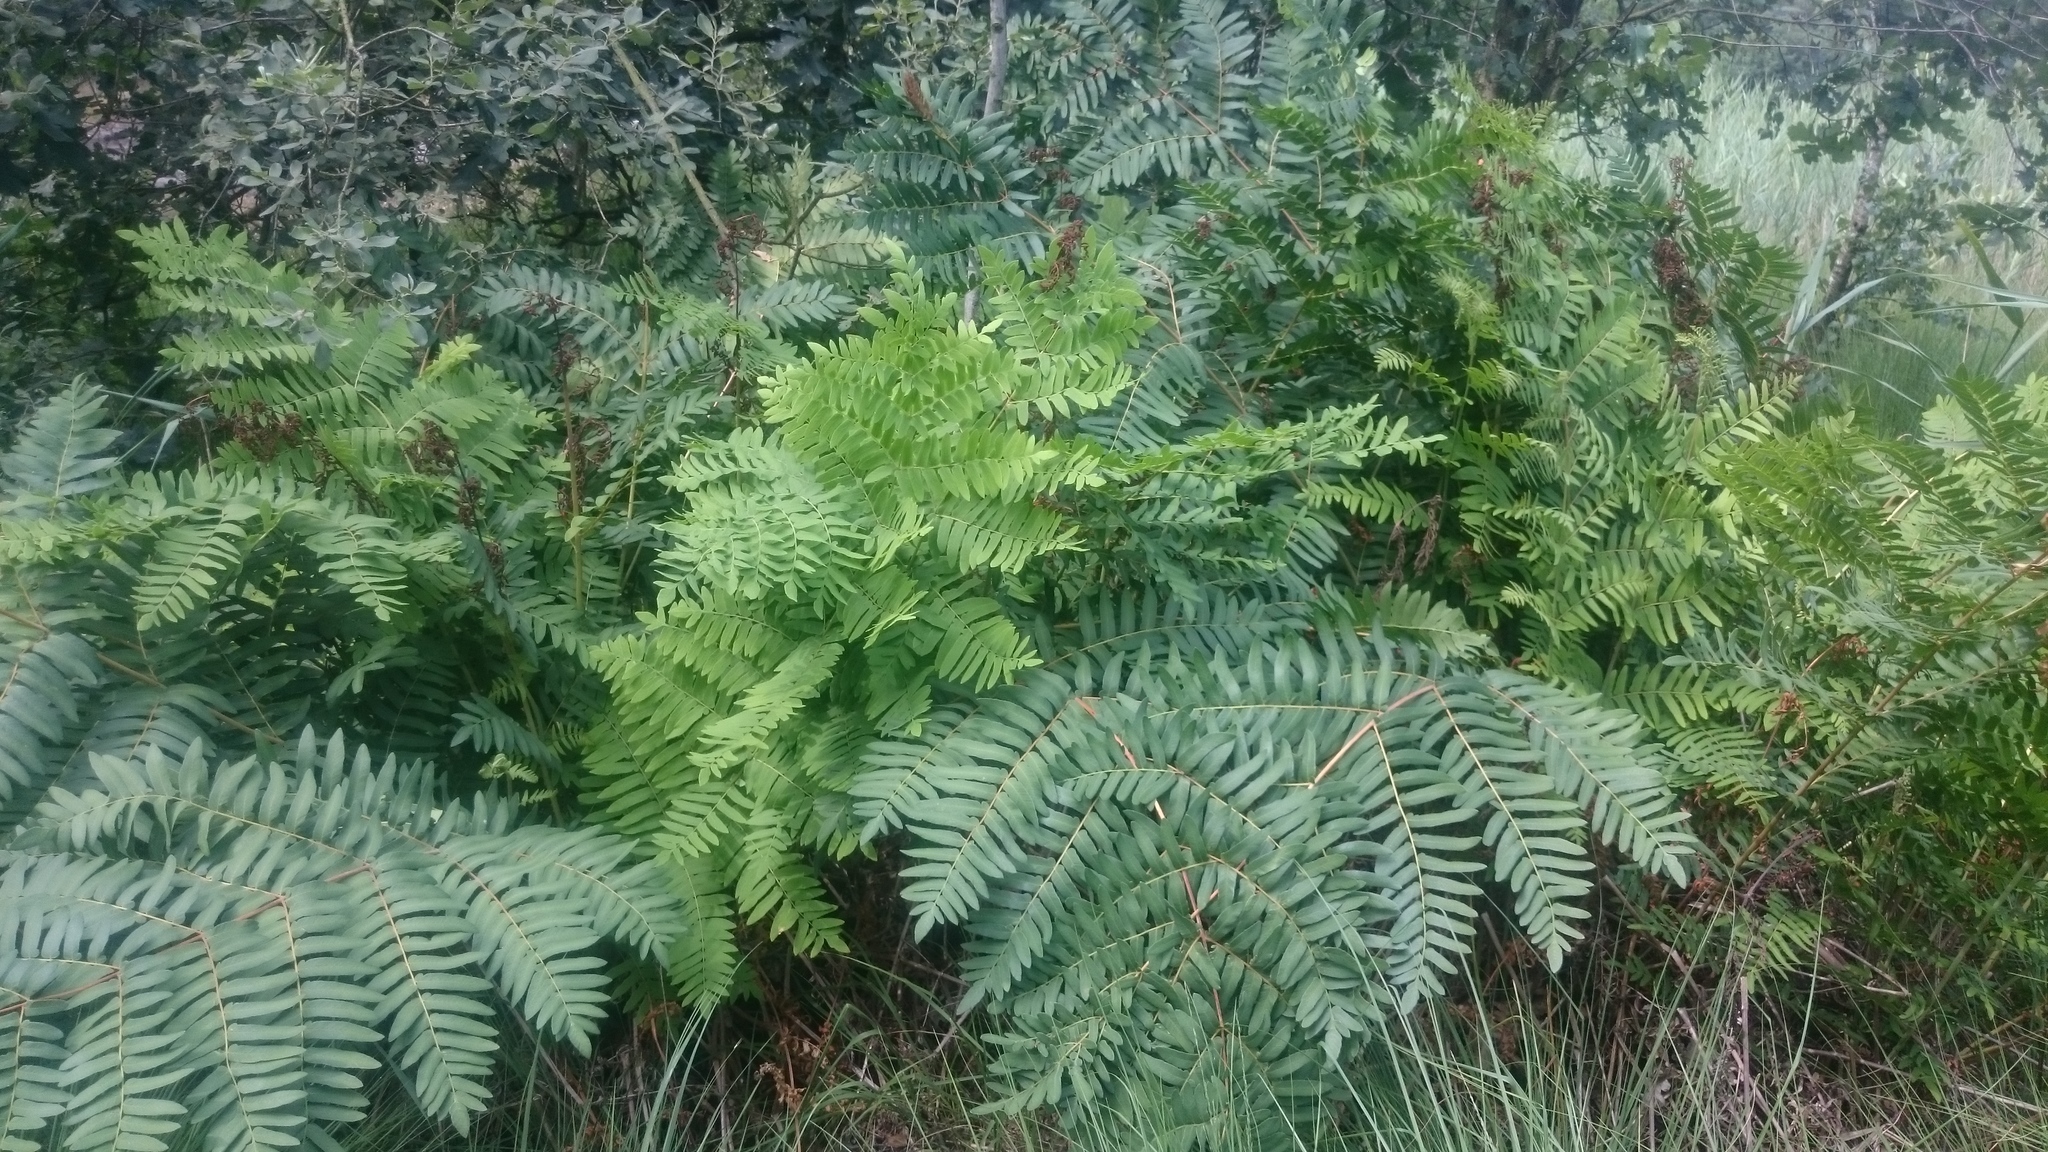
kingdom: Plantae
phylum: Tracheophyta
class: Polypodiopsida
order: Osmundales
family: Osmundaceae
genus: Osmunda
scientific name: Osmunda regalis
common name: Royal fern
